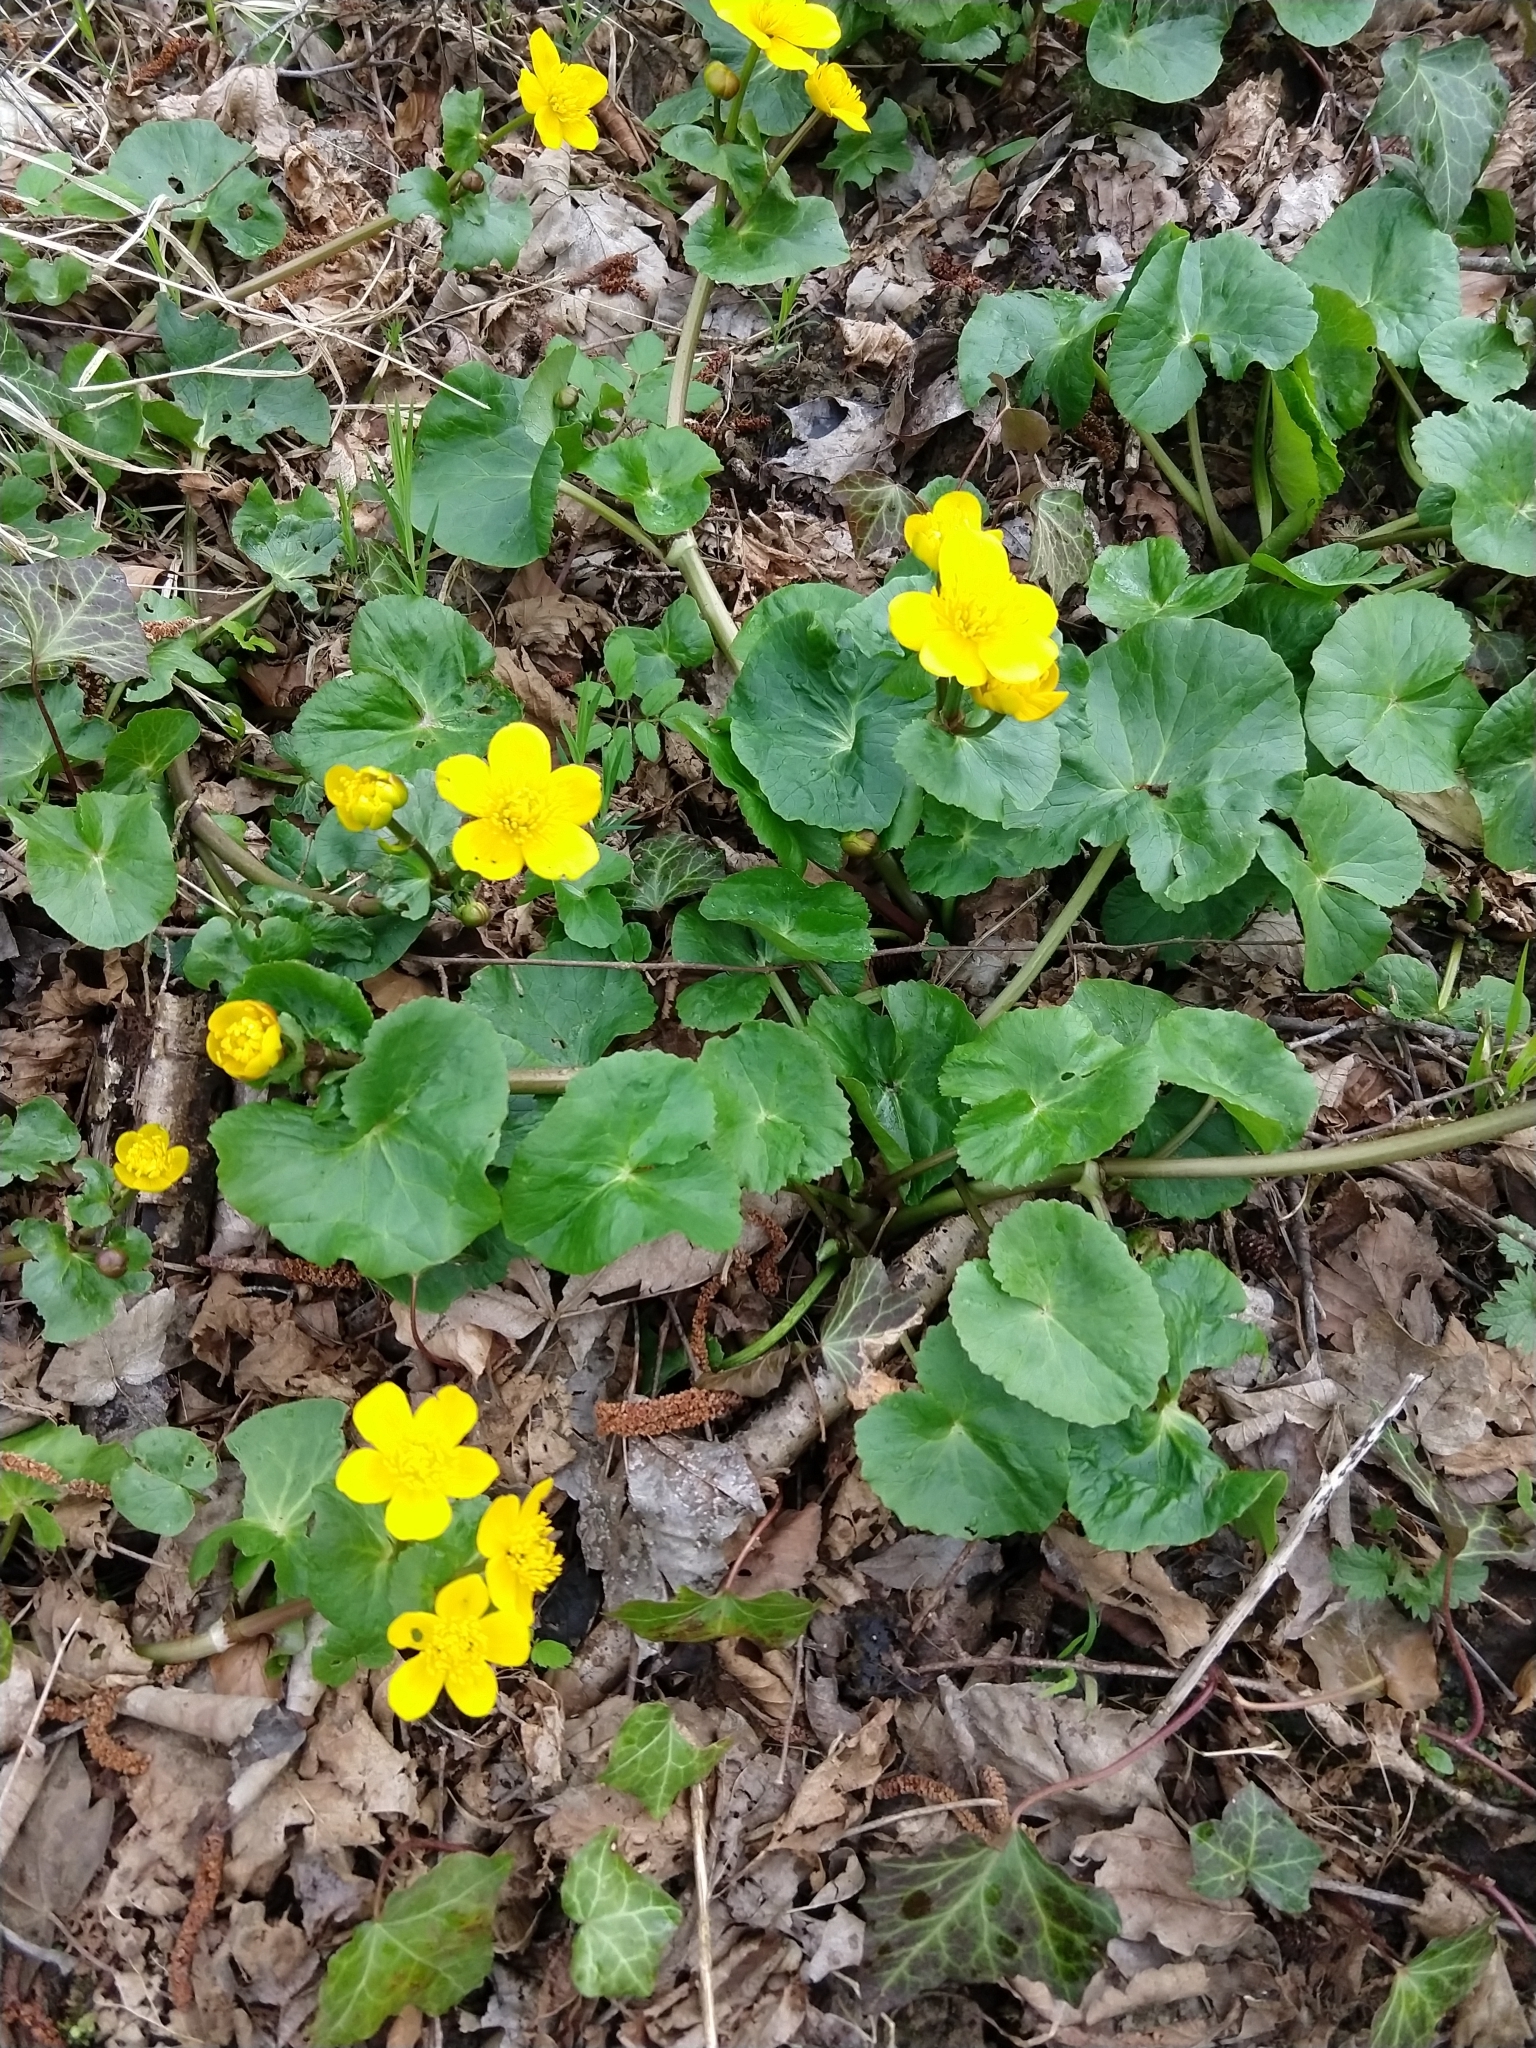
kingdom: Plantae
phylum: Tracheophyta
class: Magnoliopsida
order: Ranunculales
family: Ranunculaceae
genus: Caltha
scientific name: Caltha palustris
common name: Marsh marigold
